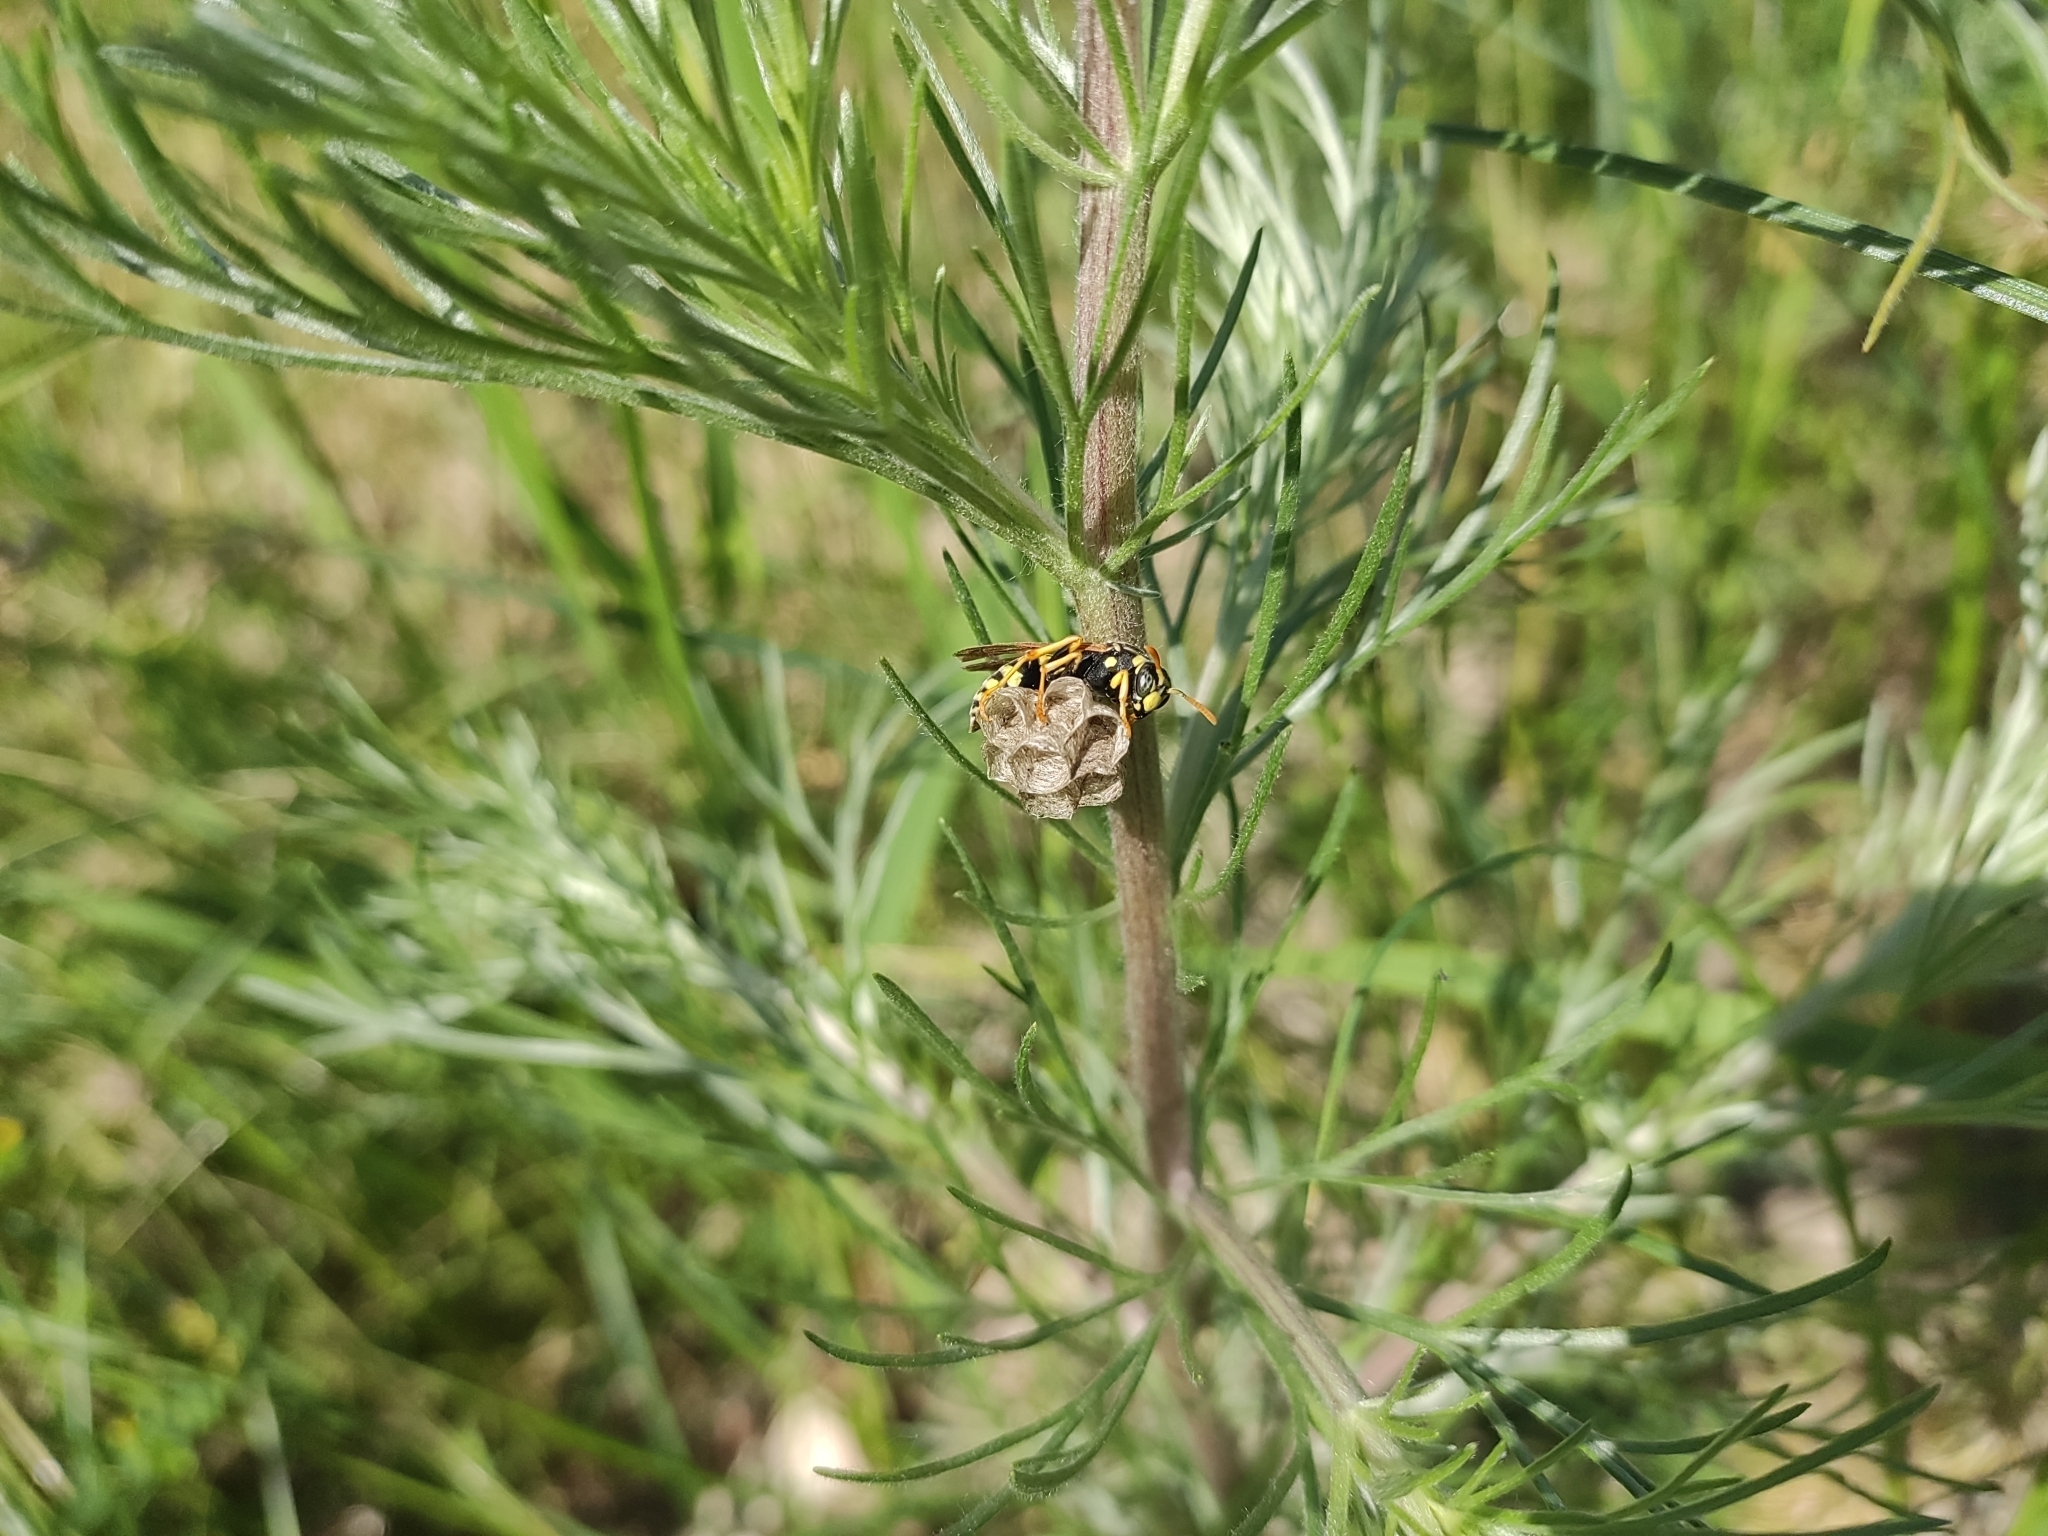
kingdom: Animalia
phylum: Arthropoda
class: Insecta
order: Hymenoptera
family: Eumenidae
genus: Polistes
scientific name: Polistes gallicus
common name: Paper wasp
